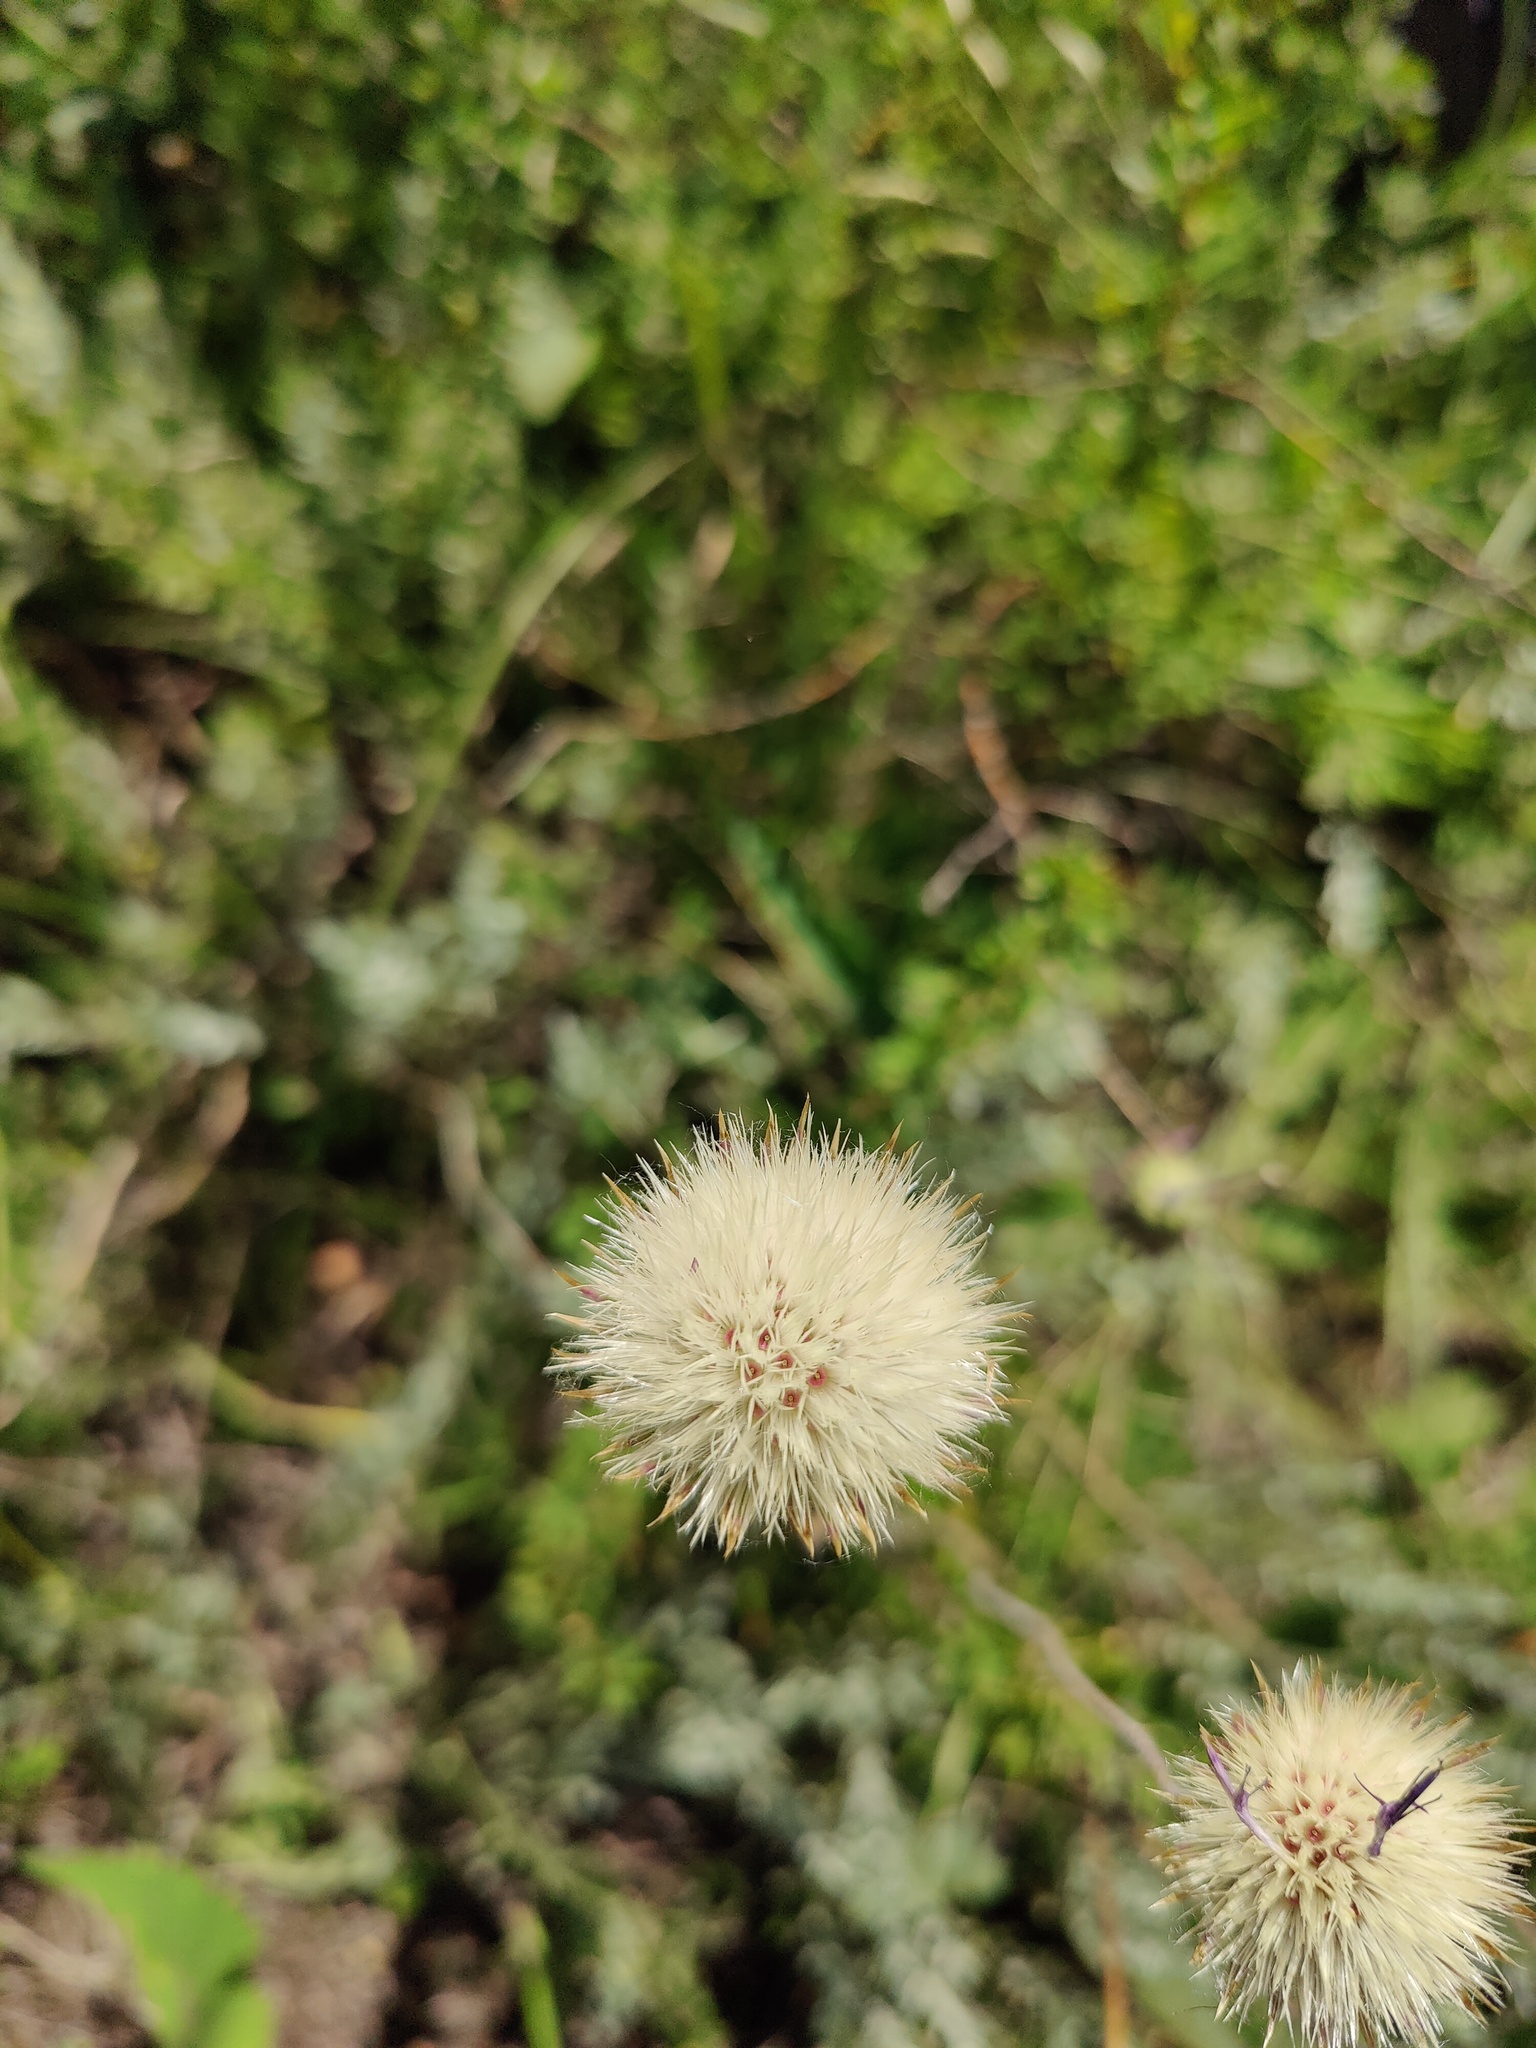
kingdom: Plantae
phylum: Tracheophyta
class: Magnoliopsida
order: Asterales
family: Asteraceae
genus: Jurinea
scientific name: Jurinea cyanoides
